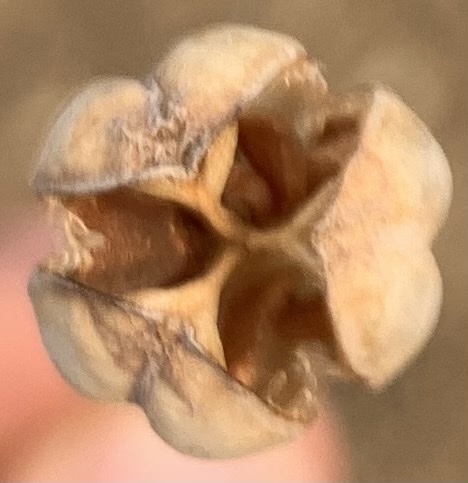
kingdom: Plantae
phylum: Tracheophyta
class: Liliopsida
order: Liliales
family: Liliaceae
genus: Fritillaria
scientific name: Fritillaria pudica
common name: Yellow fritillary
